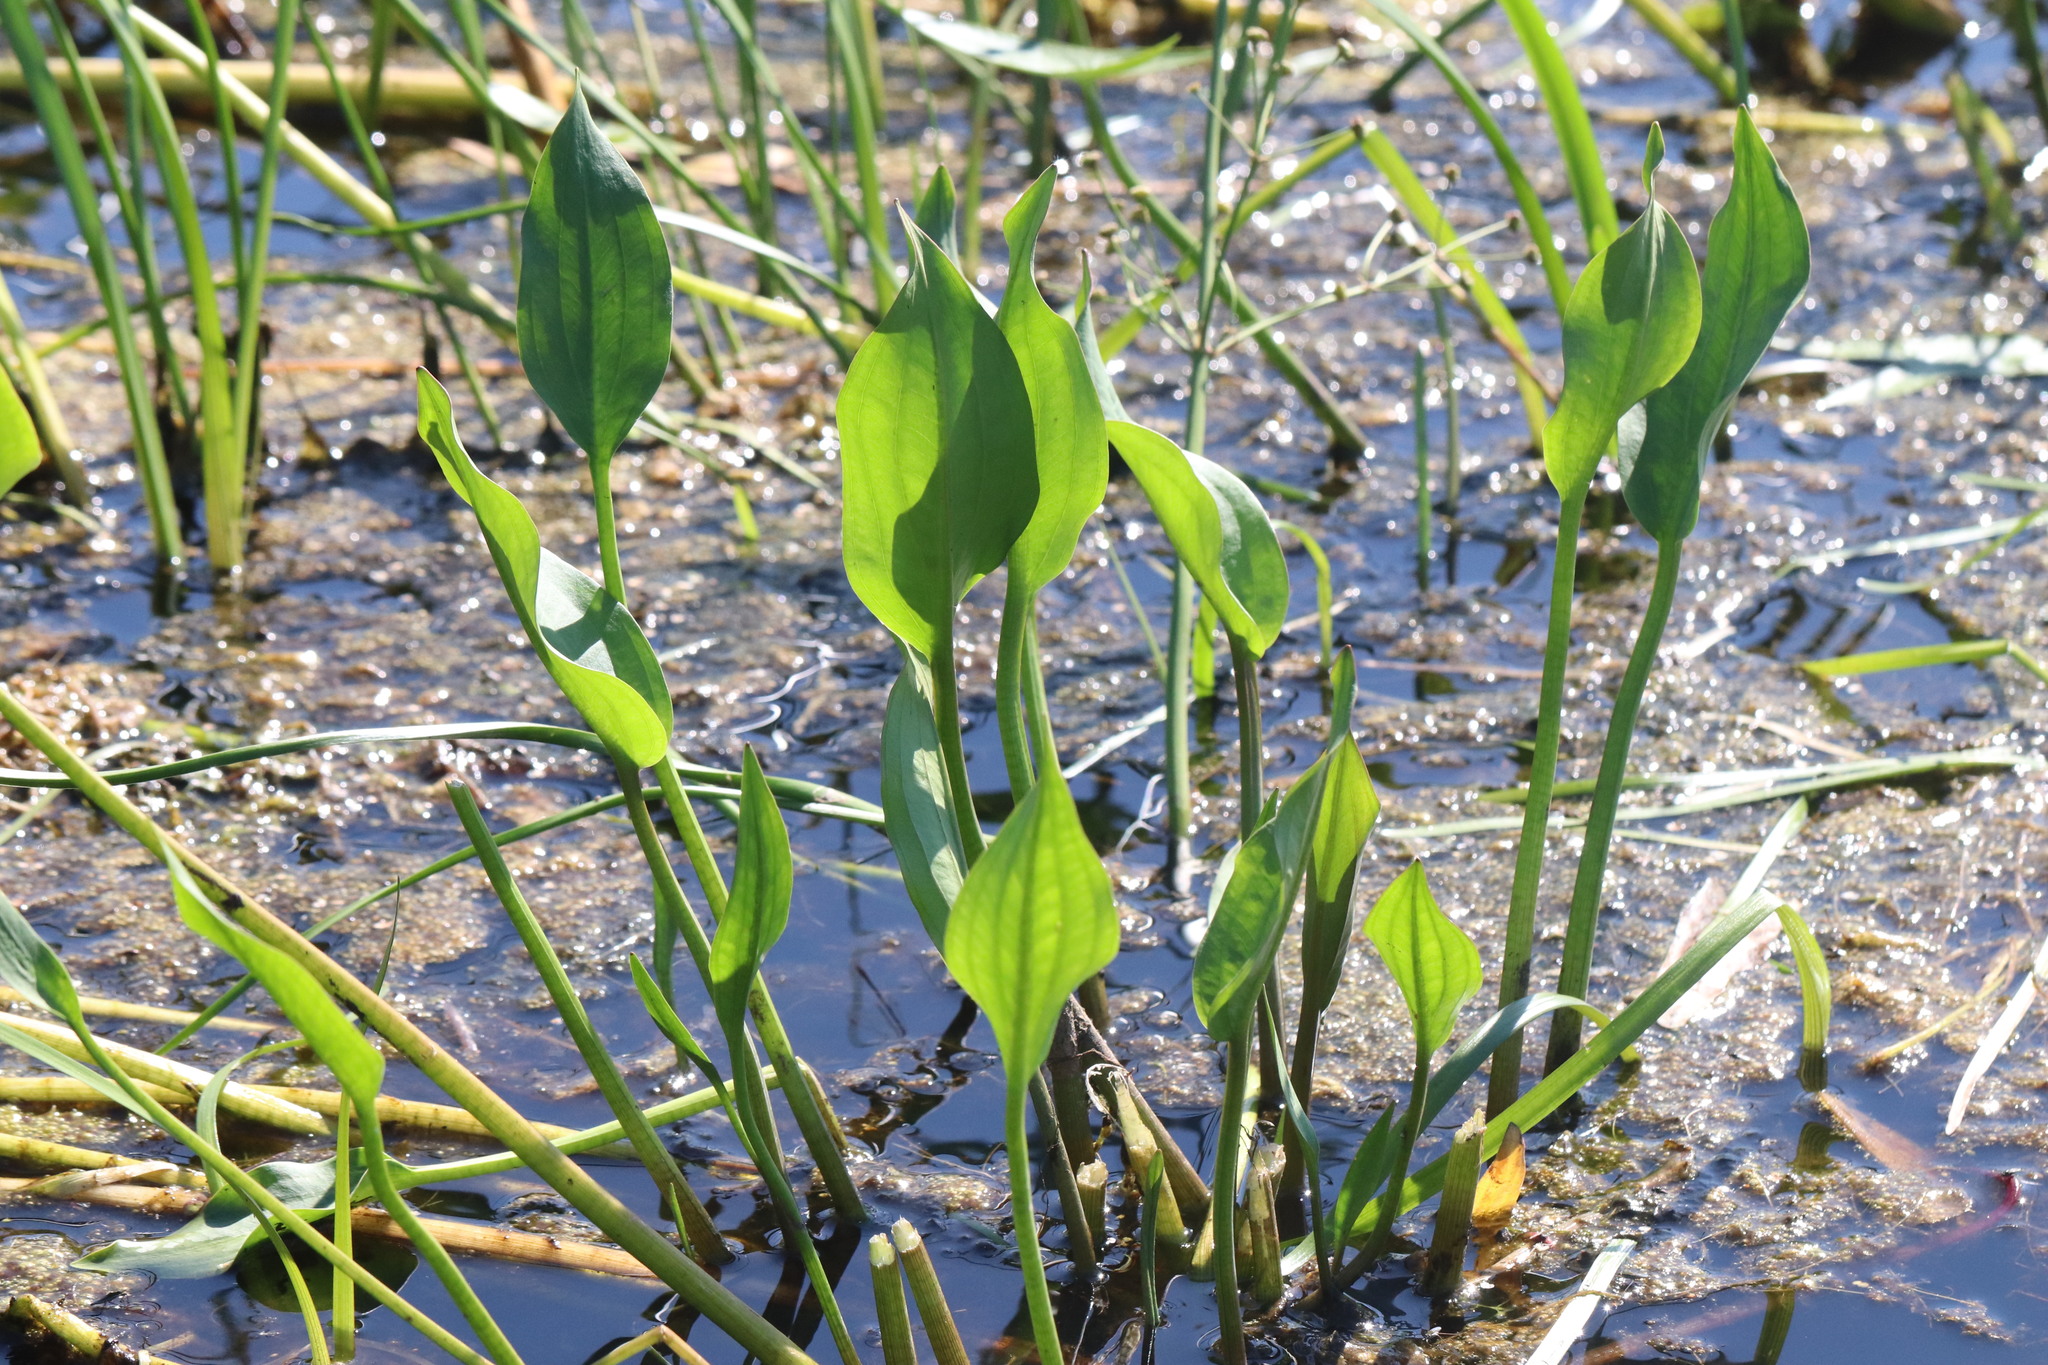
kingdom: Plantae
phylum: Tracheophyta
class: Liliopsida
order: Alismatales
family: Alismataceae
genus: Alisma
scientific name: Alisma plantago-aquatica
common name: Water-plantain
